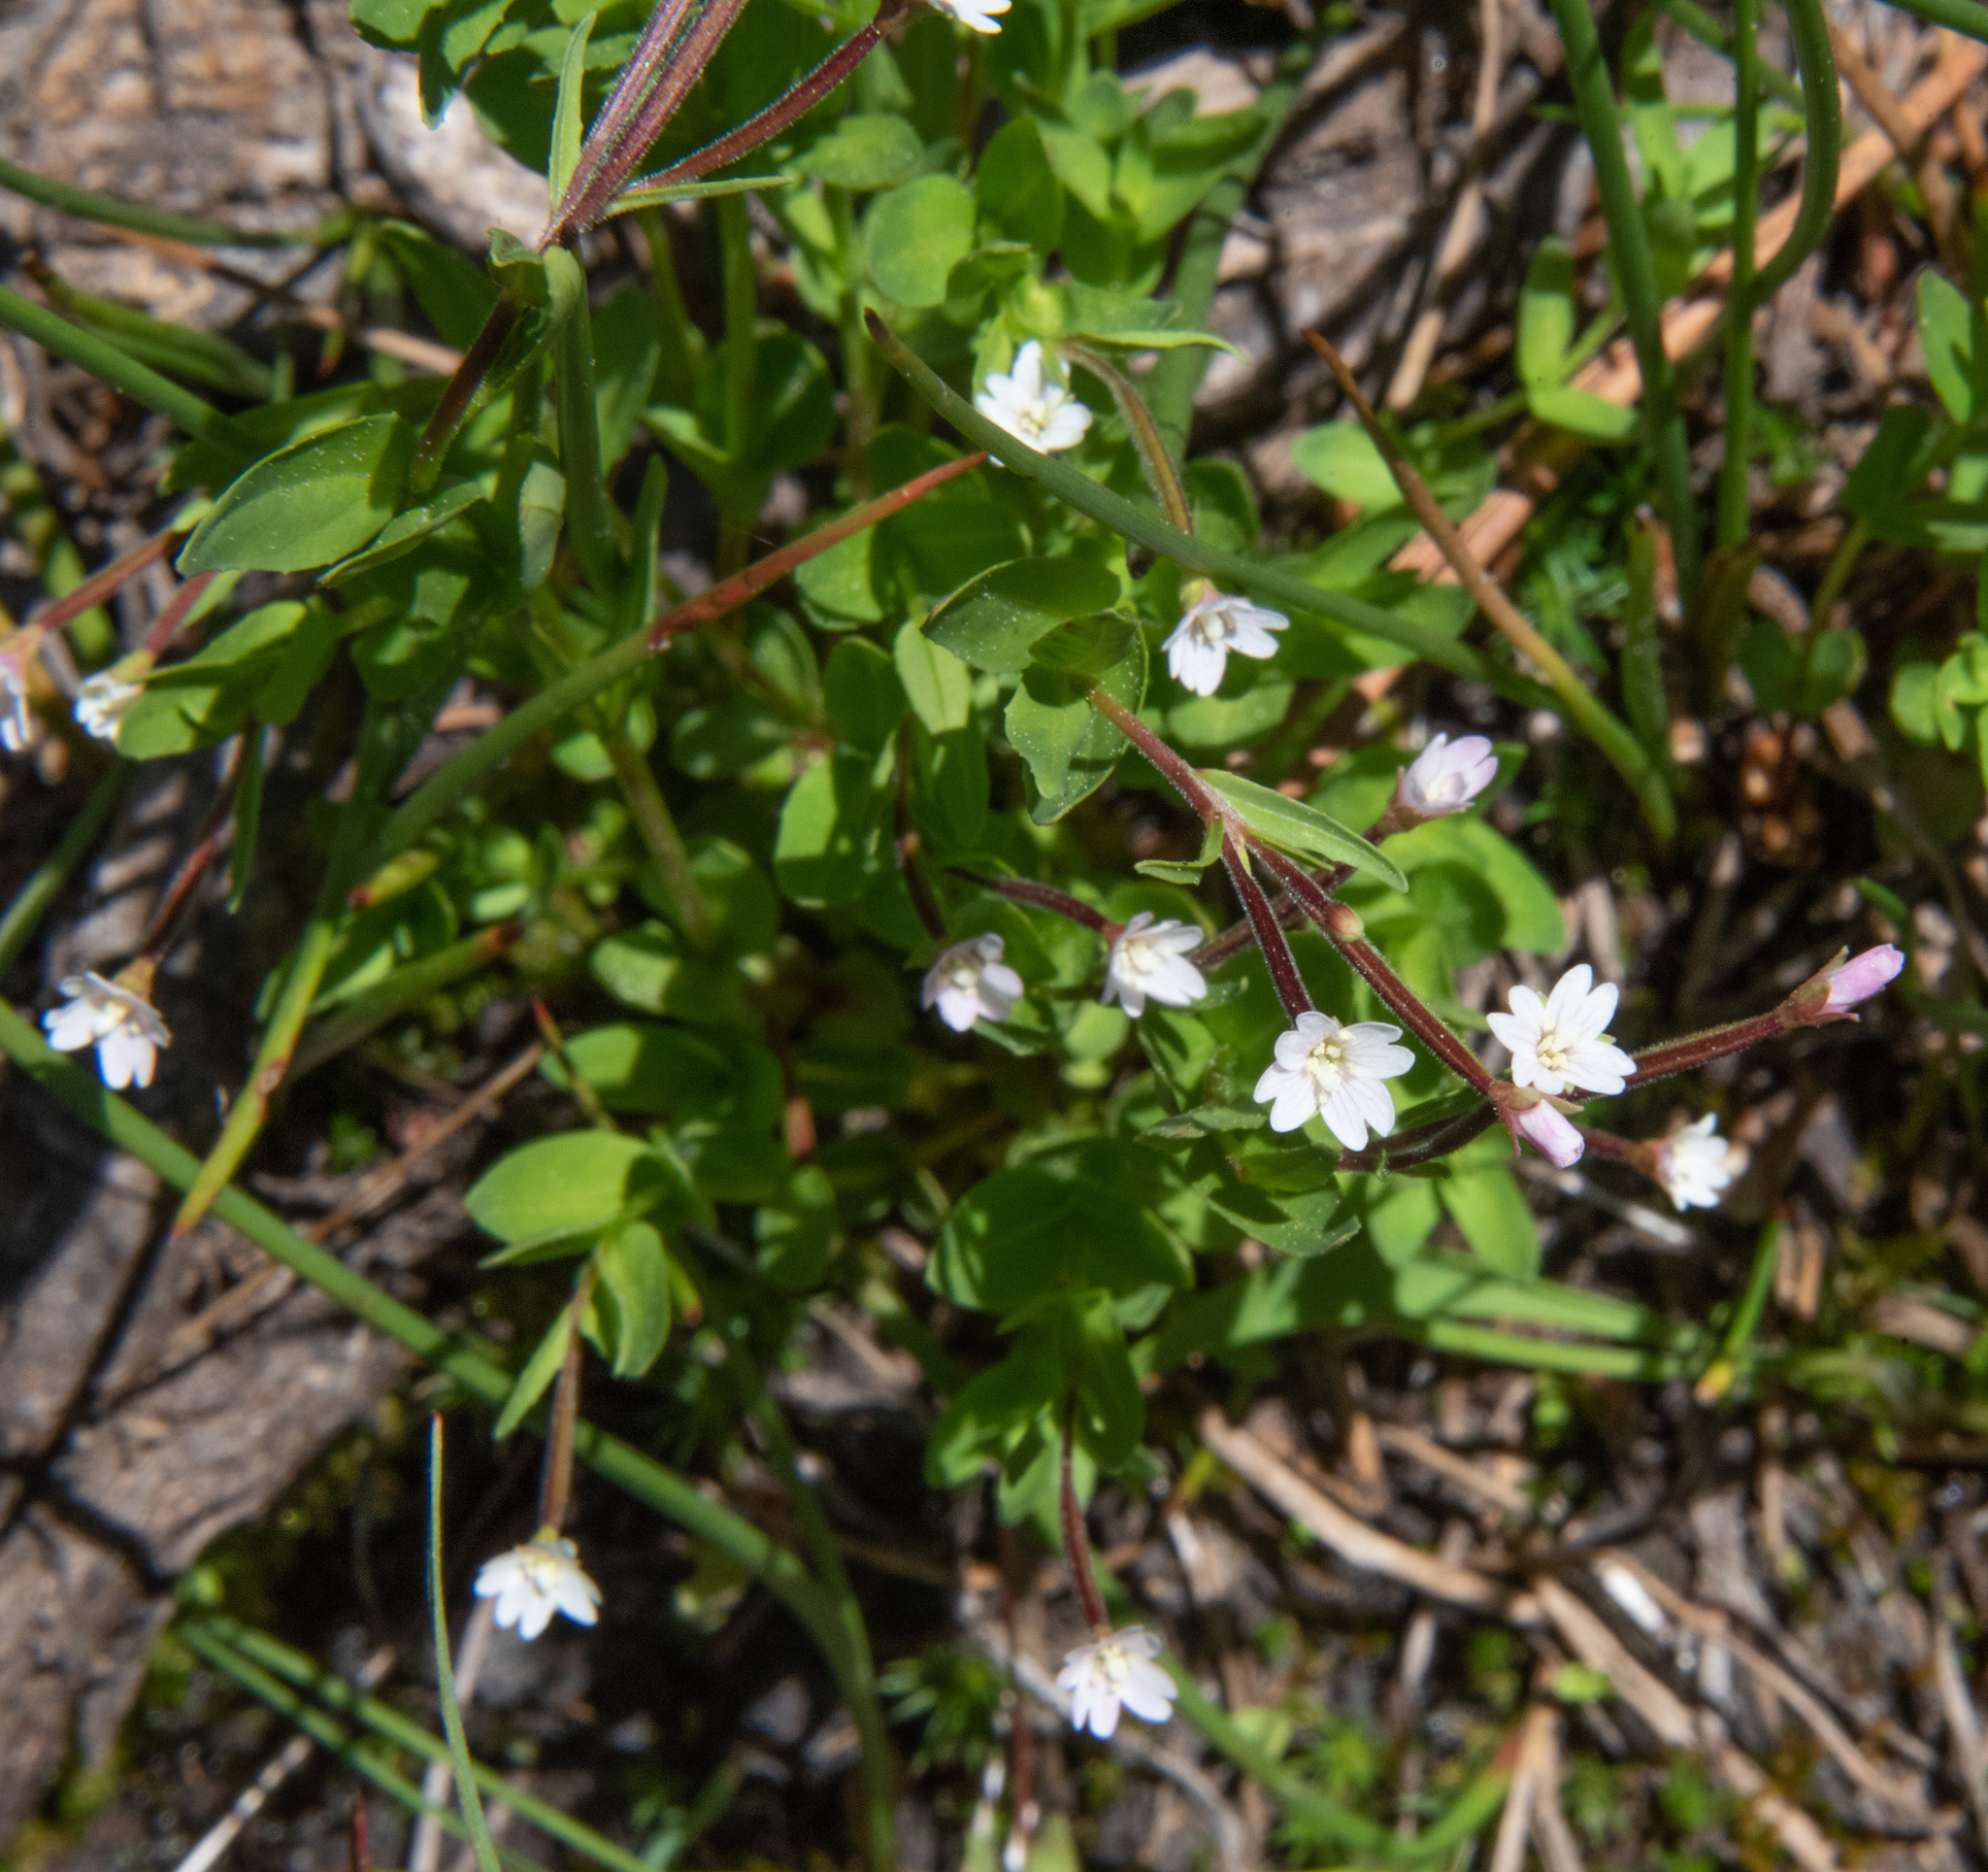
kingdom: Plantae
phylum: Tracheophyta
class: Magnoliopsida
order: Myrtales
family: Onagraceae
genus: Epilobium
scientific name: Epilobium ciliatum
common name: American willowherb
